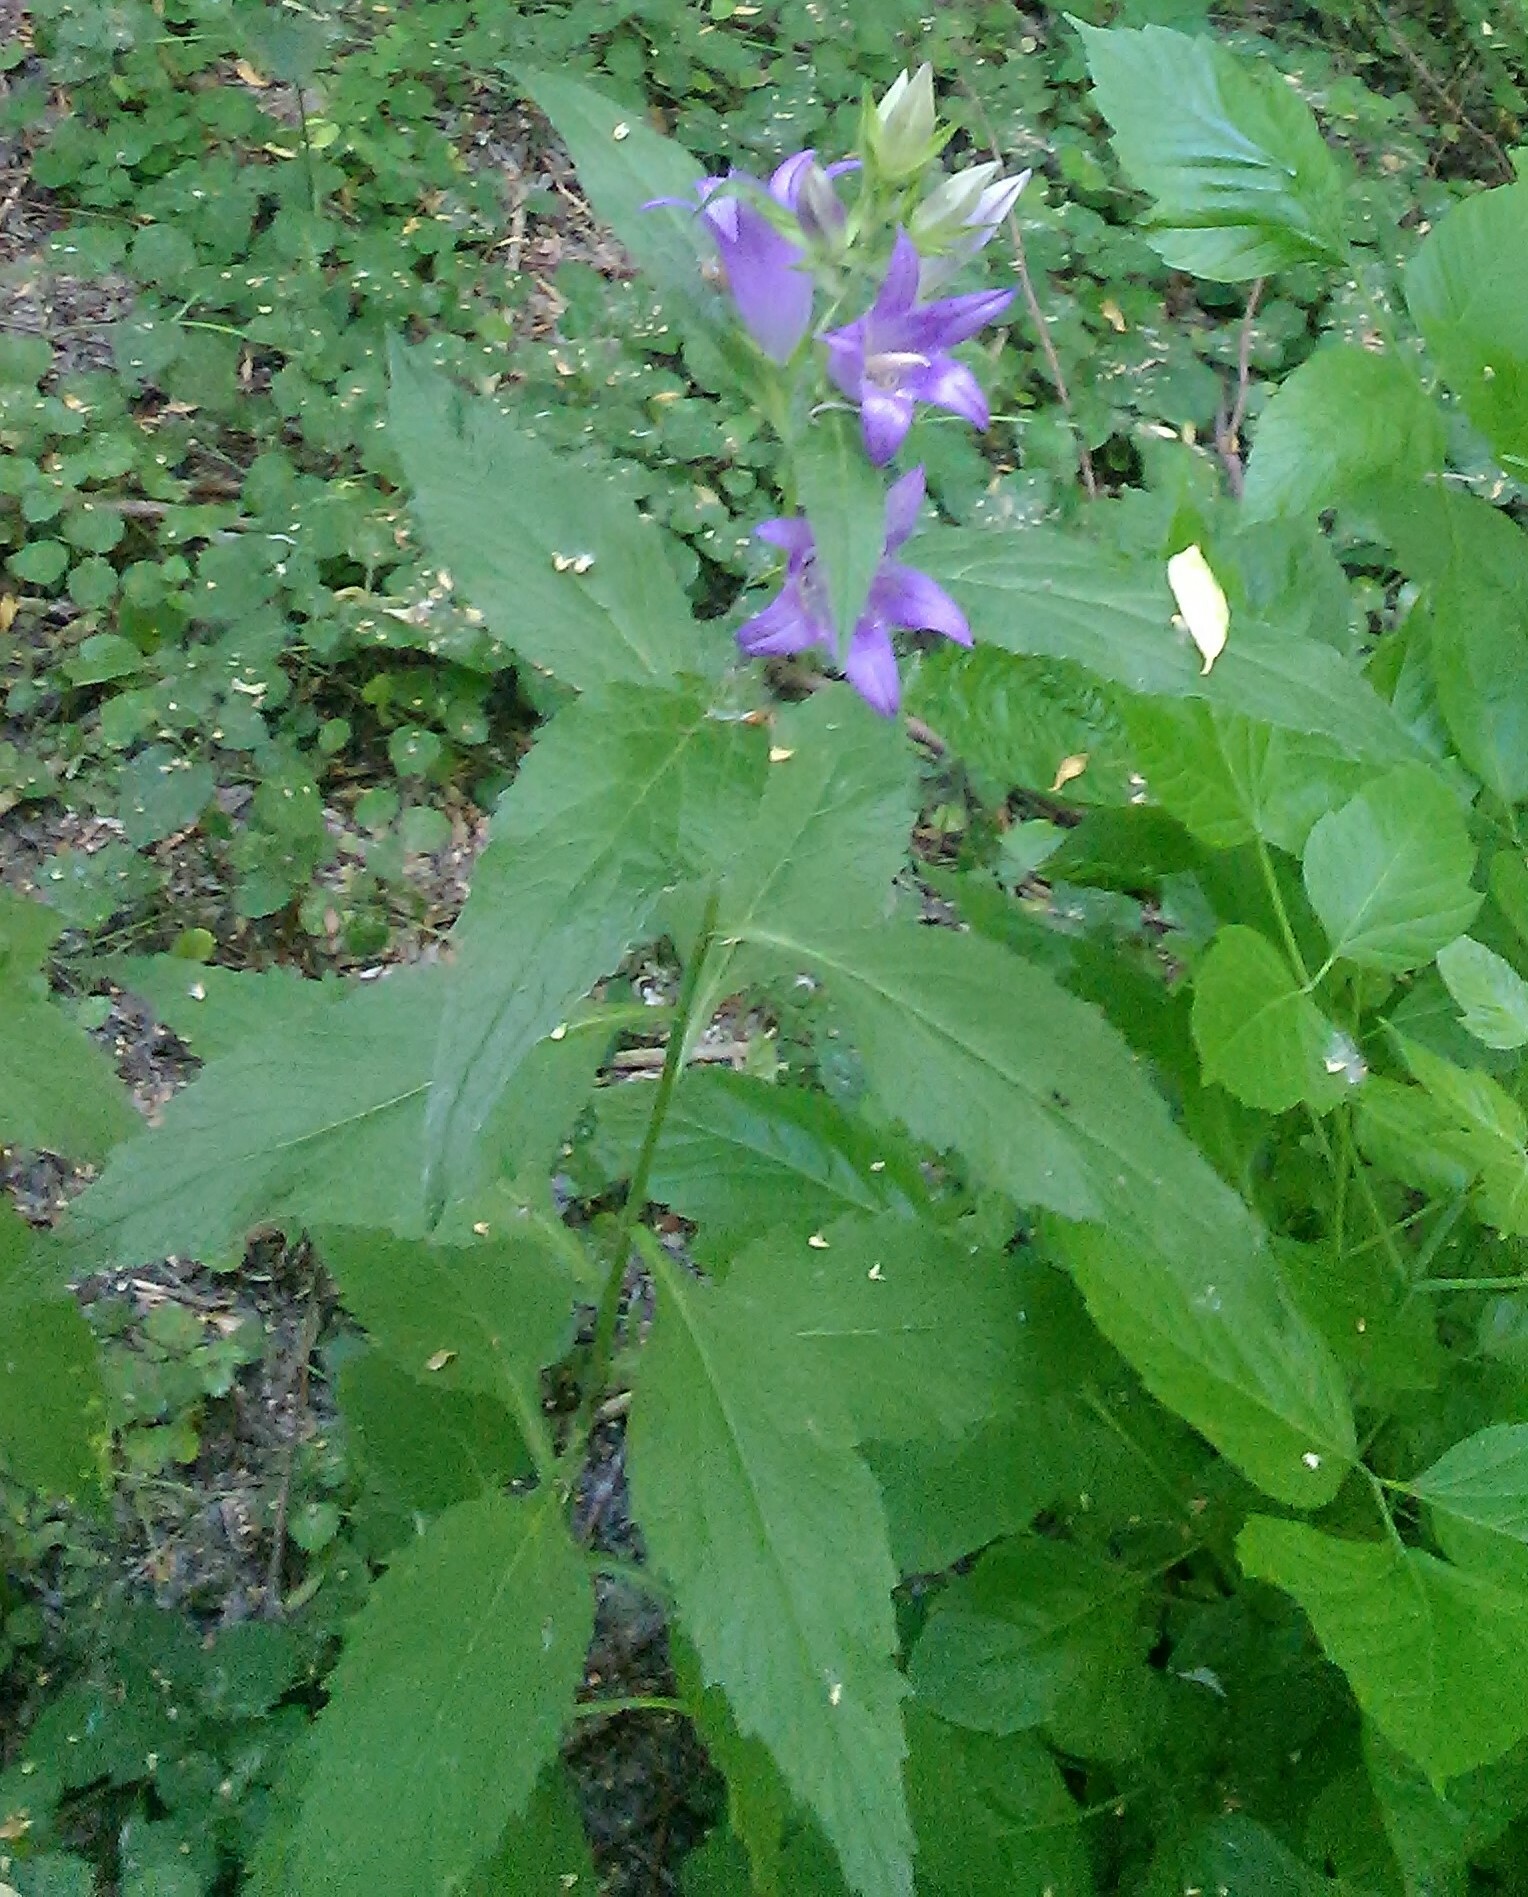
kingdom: Plantae
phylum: Tracheophyta
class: Magnoliopsida
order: Asterales
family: Campanulaceae
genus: Campanula
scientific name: Campanula latifolia
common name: Giant bellflower
